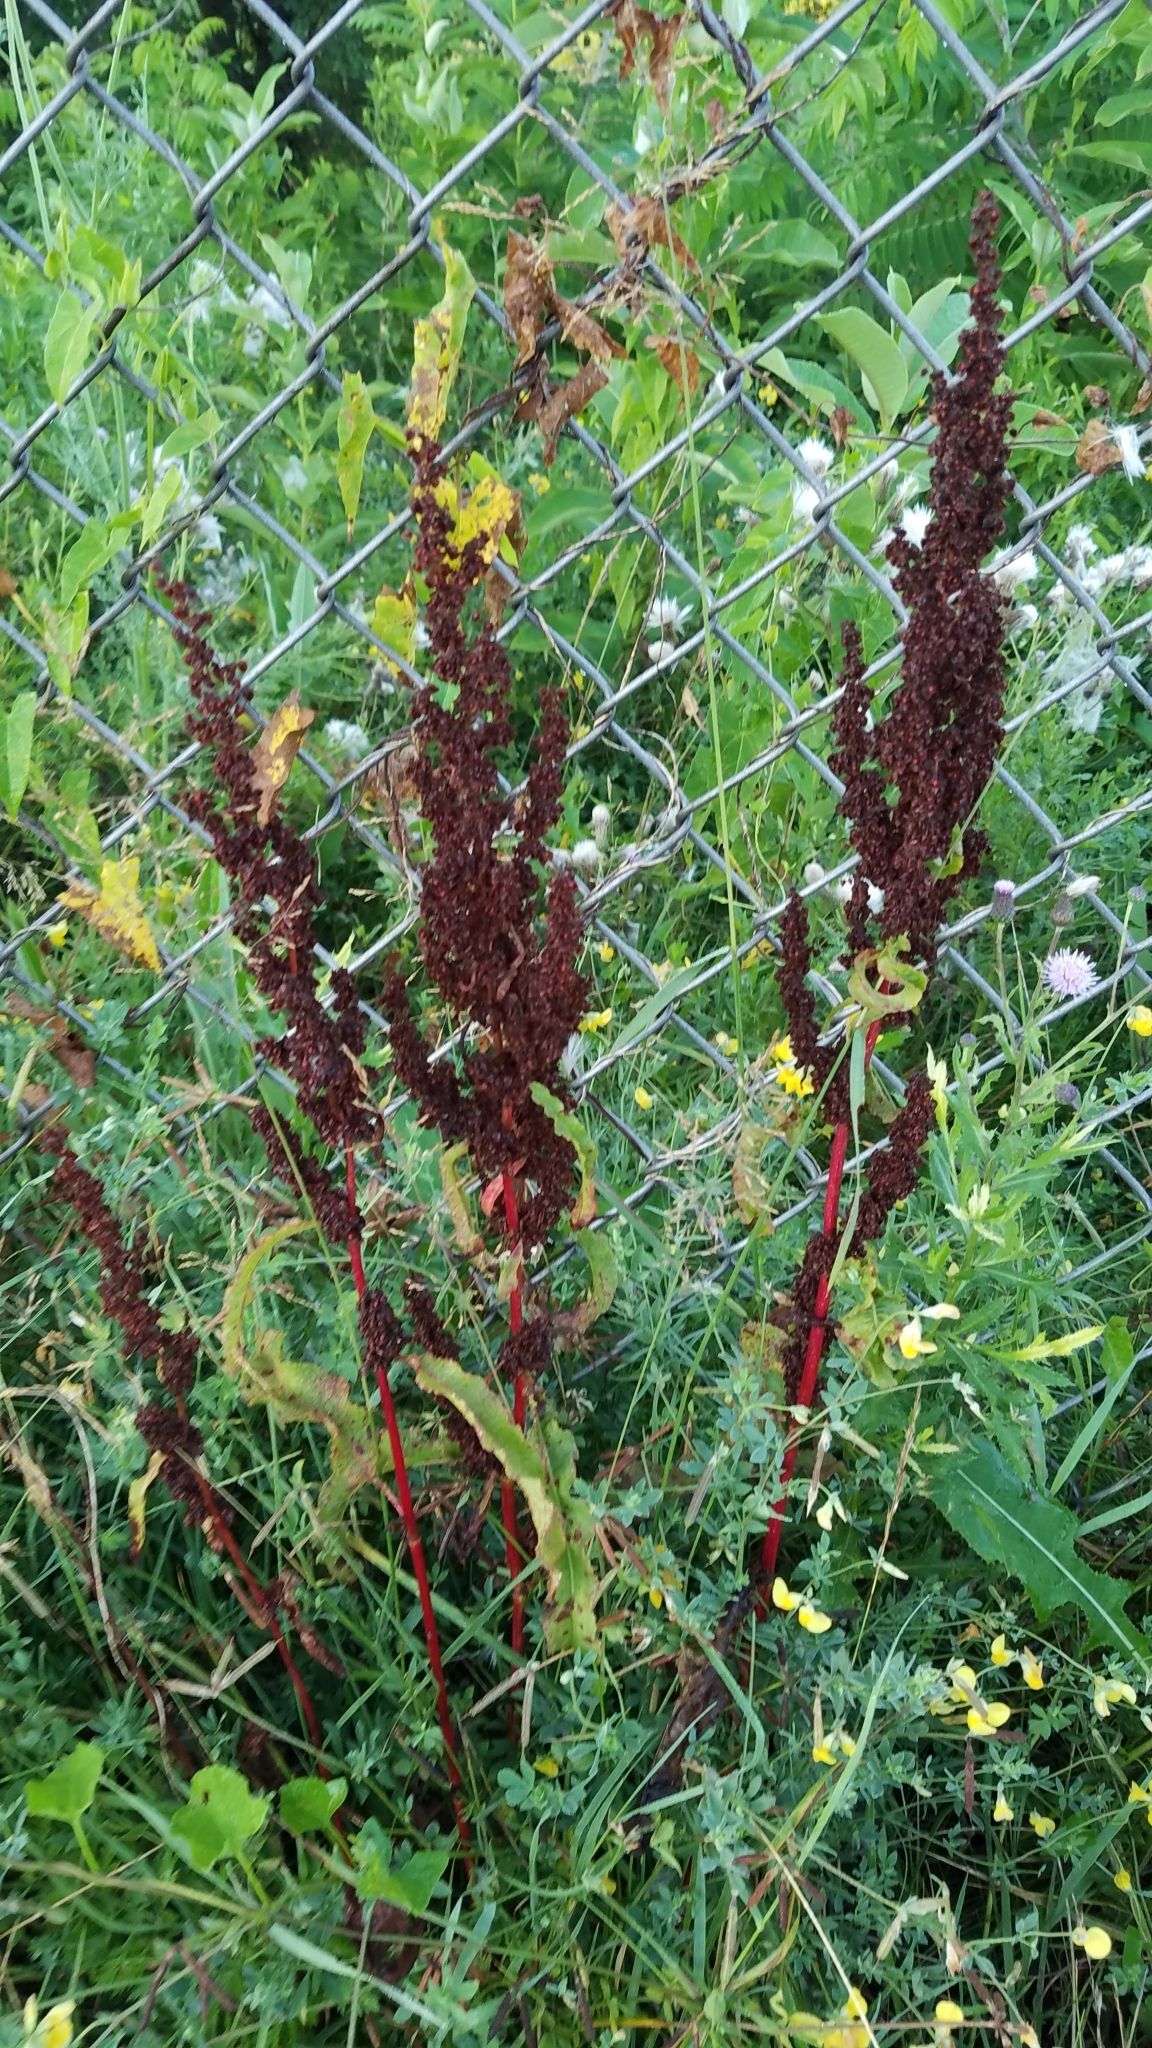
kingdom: Plantae
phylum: Tracheophyta
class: Magnoliopsida
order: Caryophyllales
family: Polygonaceae
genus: Rumex
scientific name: Rumex crispus
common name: Curled dock
